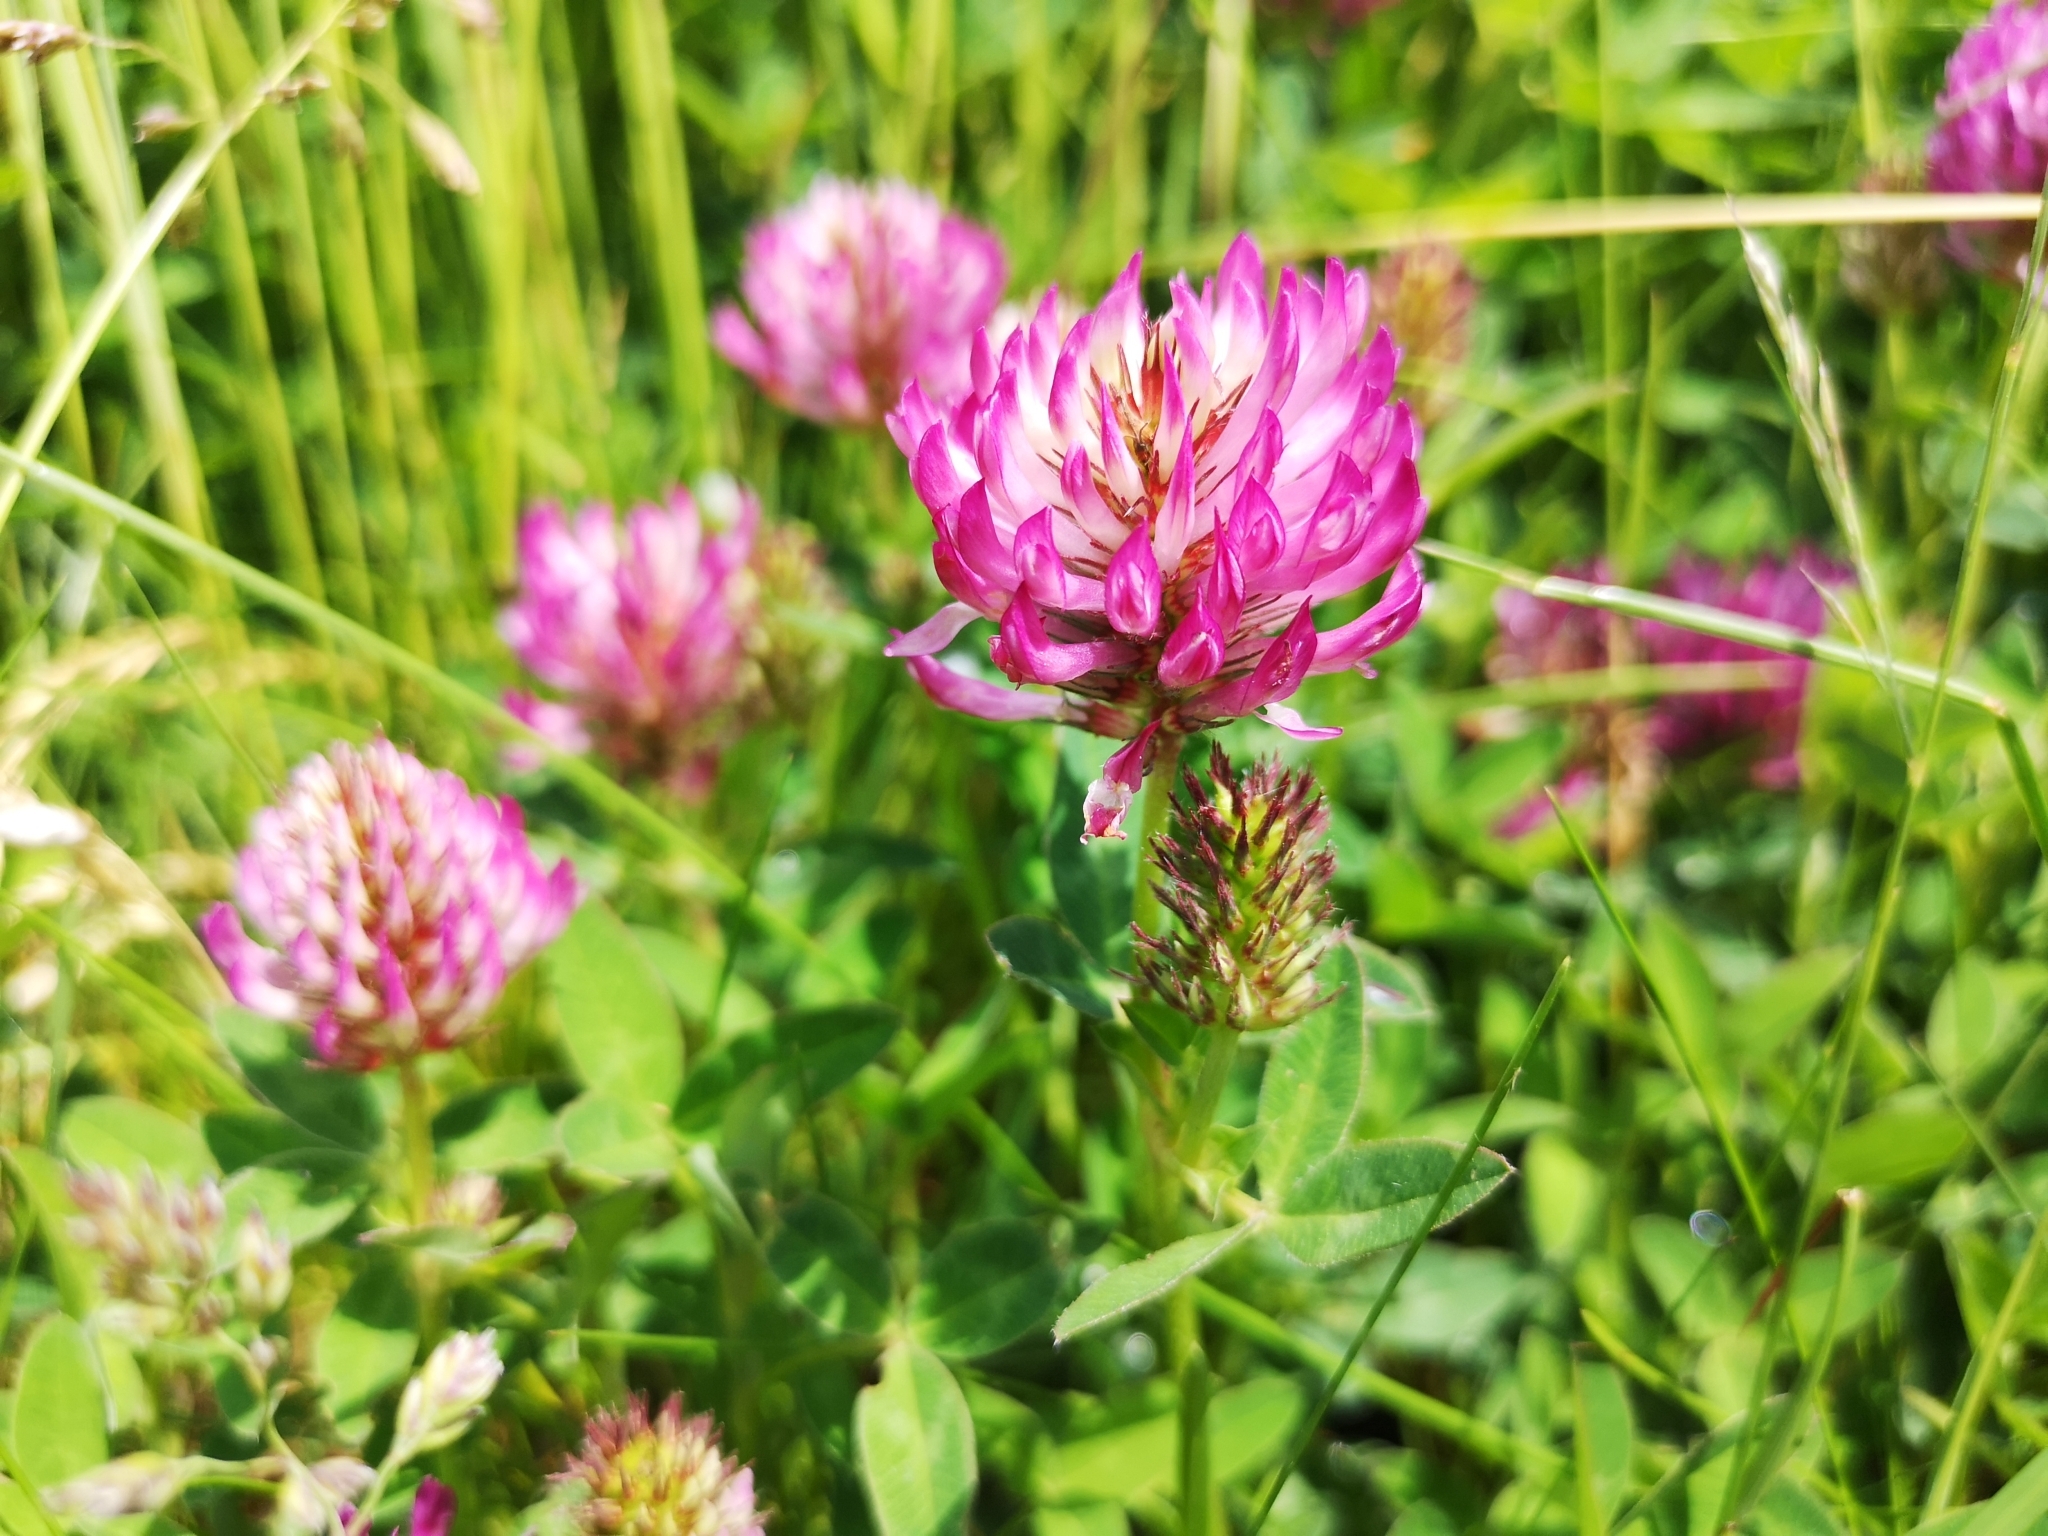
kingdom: Plantae
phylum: Tracheophyta
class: Magnoliopsida
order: Fabales
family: Fabaceae
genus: Trifolium
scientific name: Trifolium medium
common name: Zigzag clover
